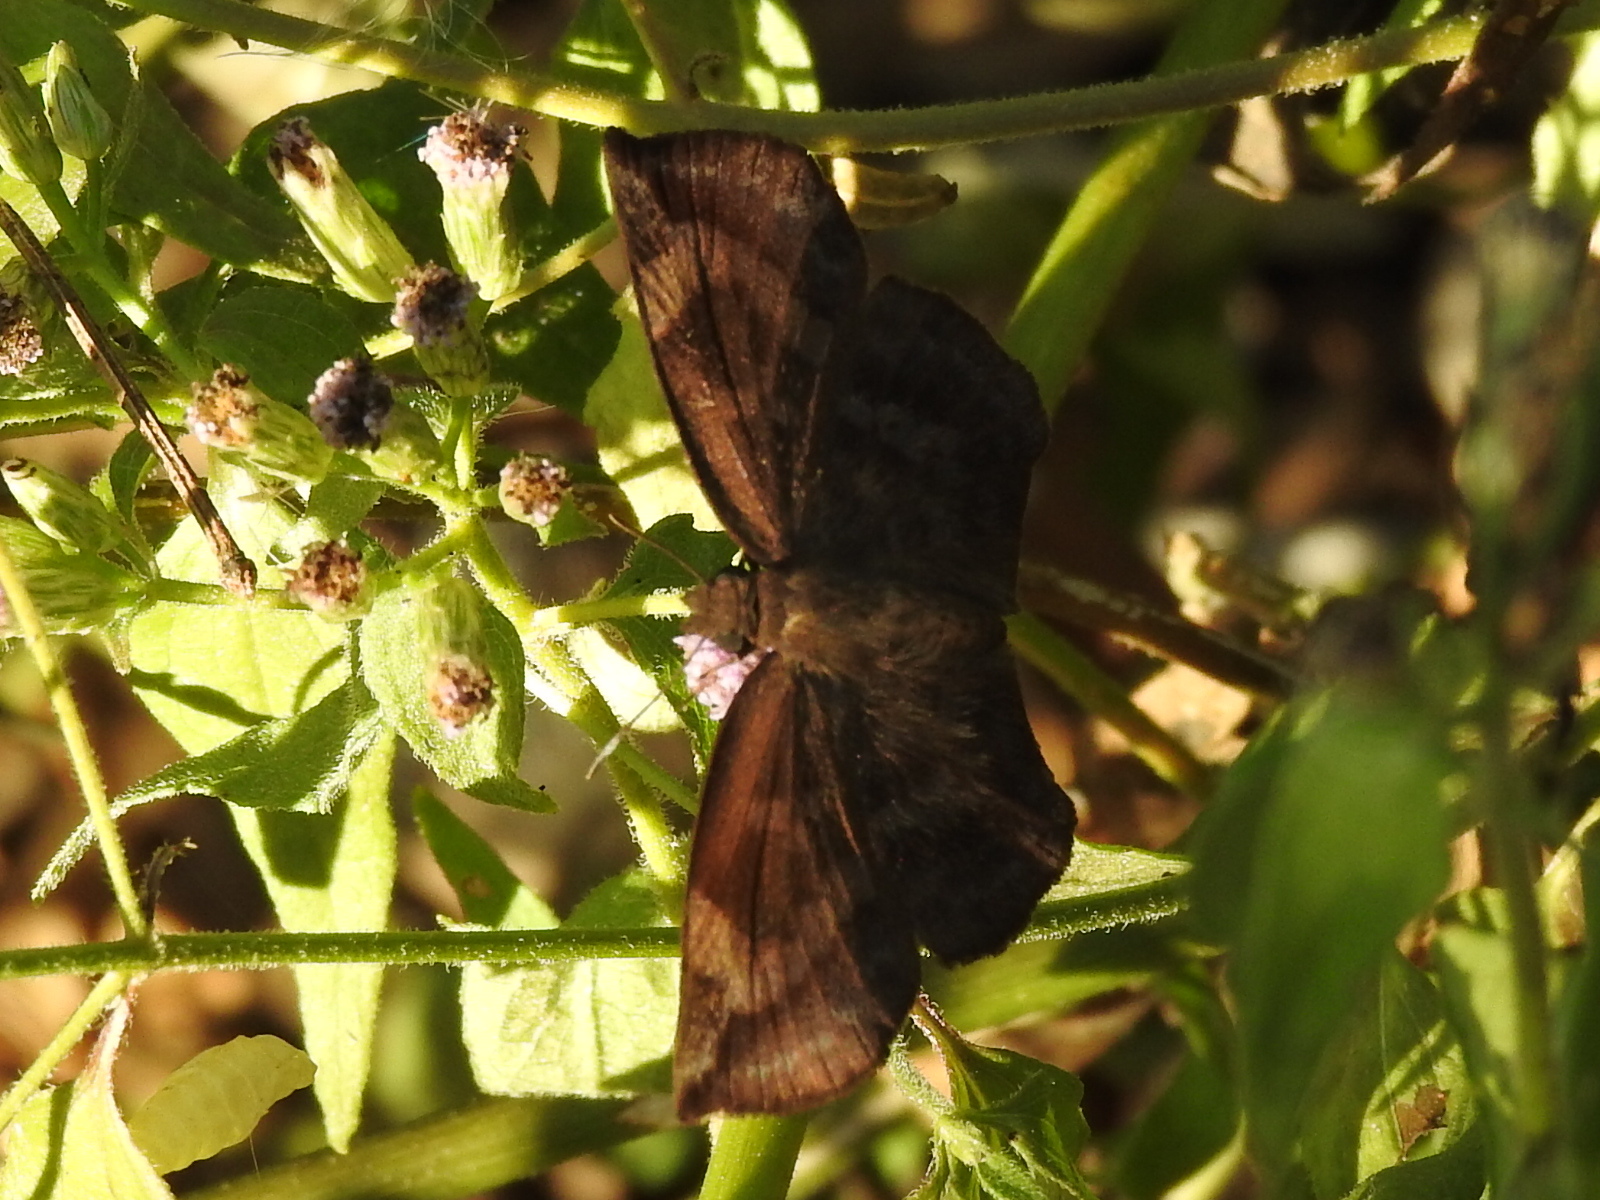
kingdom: Animalia
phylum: Arthropoda
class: Insecta
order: Lepidoptera
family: Hesperiidae
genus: Achlyodes
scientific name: Achlyodes thraso
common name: Sickle-winged skipper
